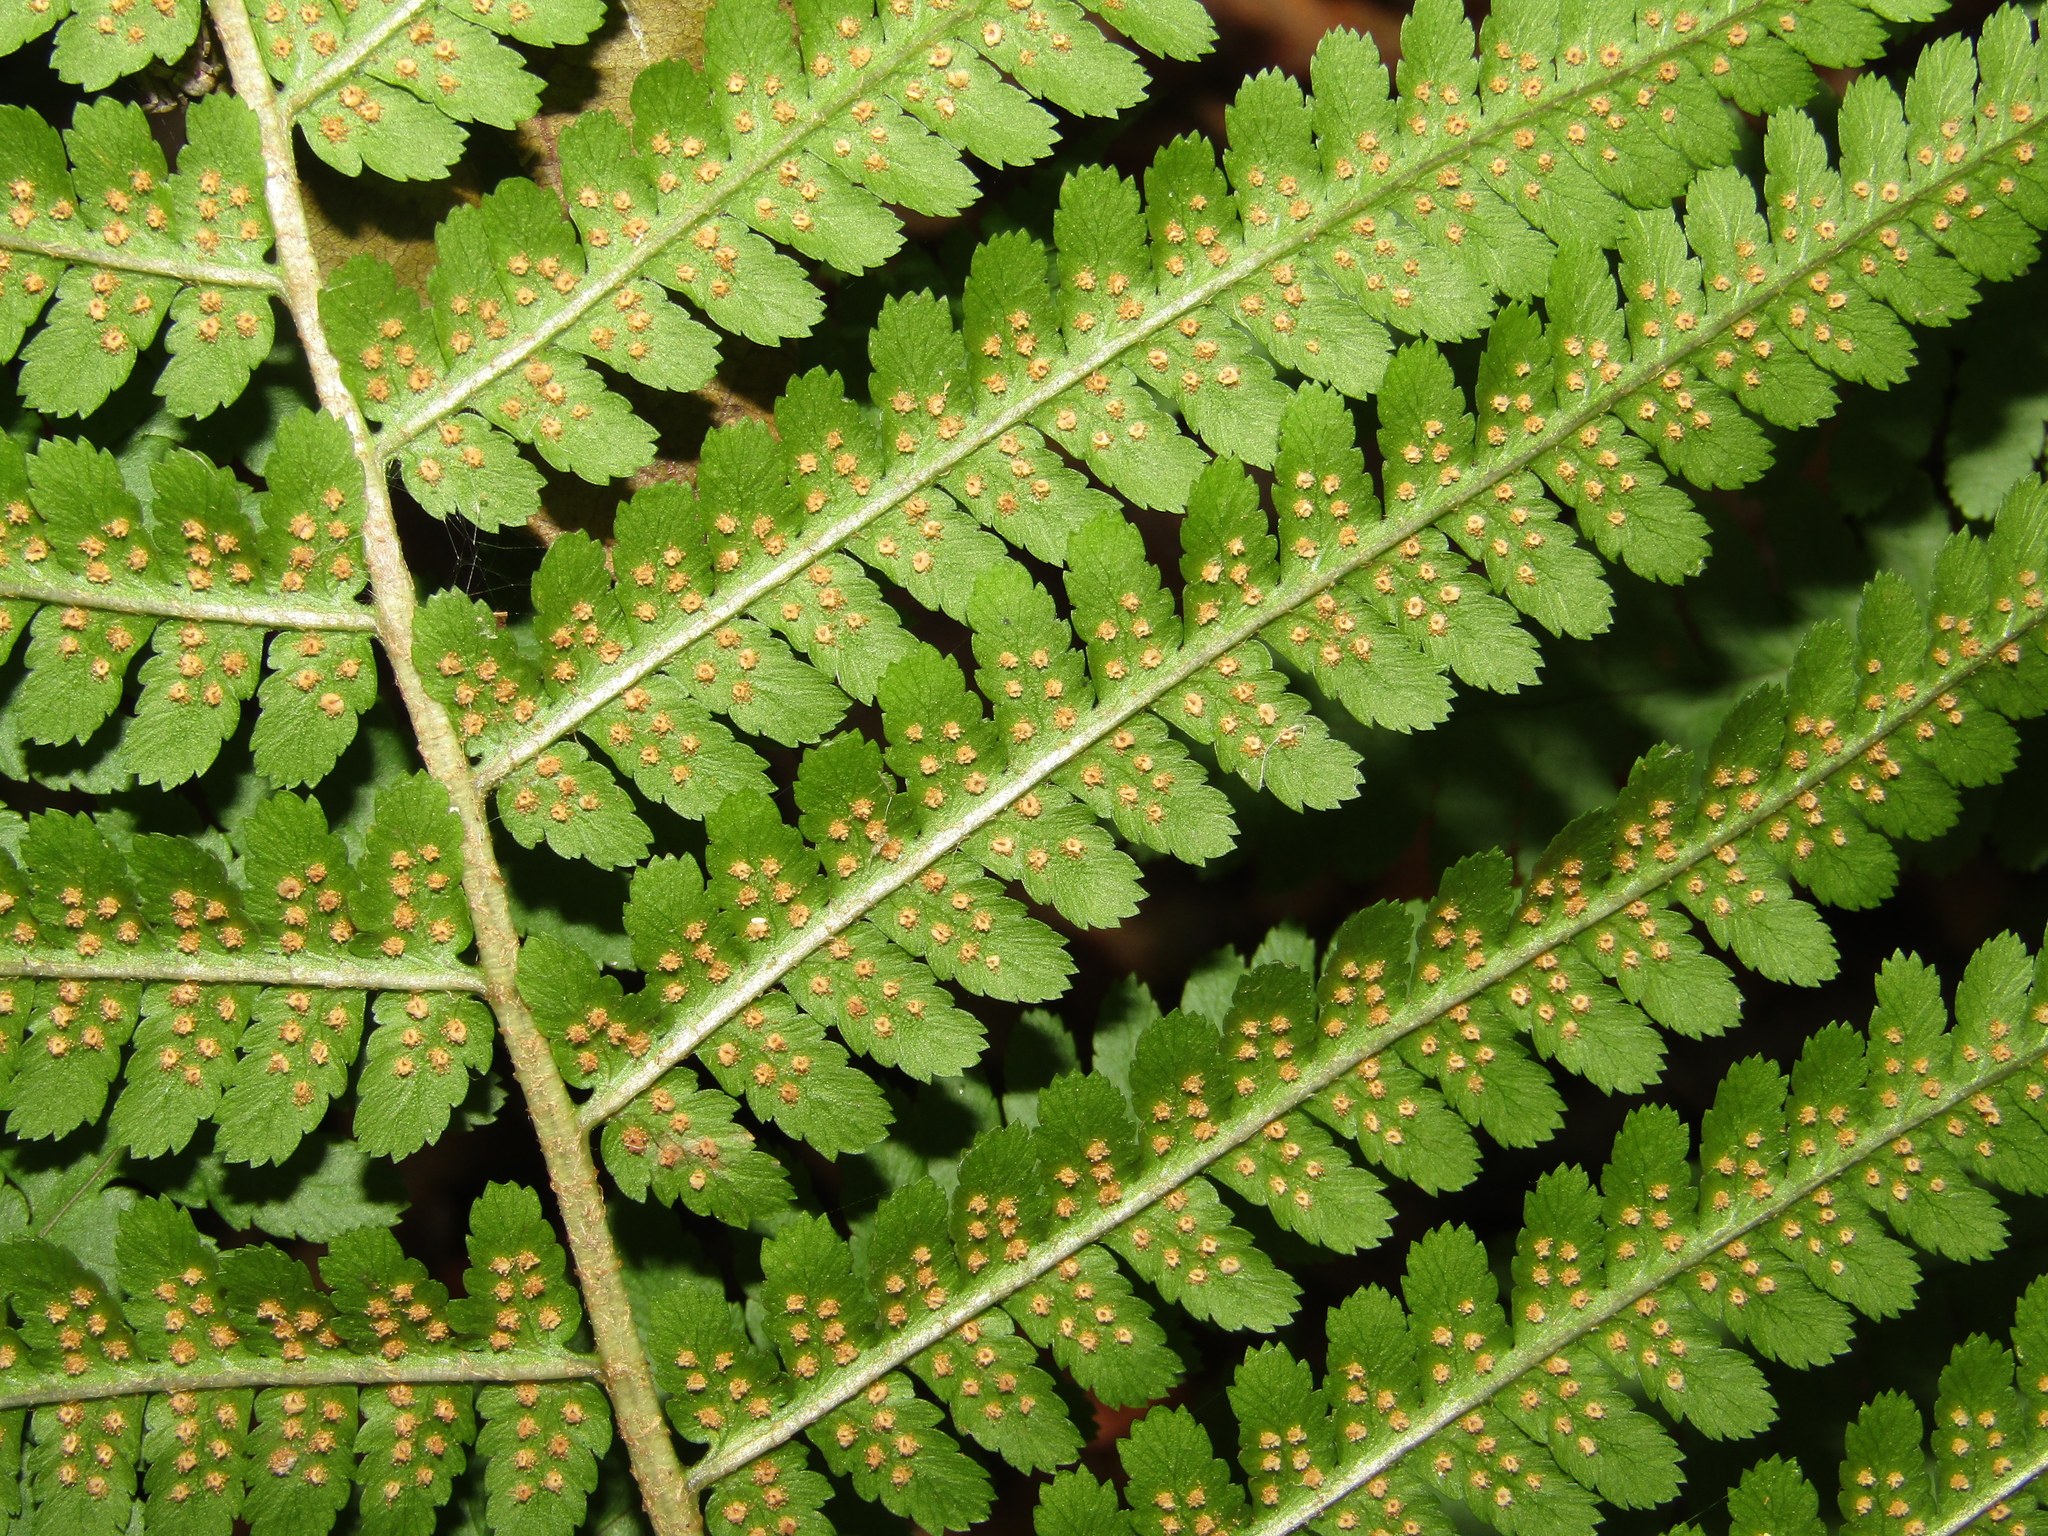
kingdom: Plantae
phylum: Tracheophyta
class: Polypodiopsida
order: Polypodiales
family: Dryopteridaceae
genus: Dryopteris
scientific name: Dryopteris filix-mas
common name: Male fern
